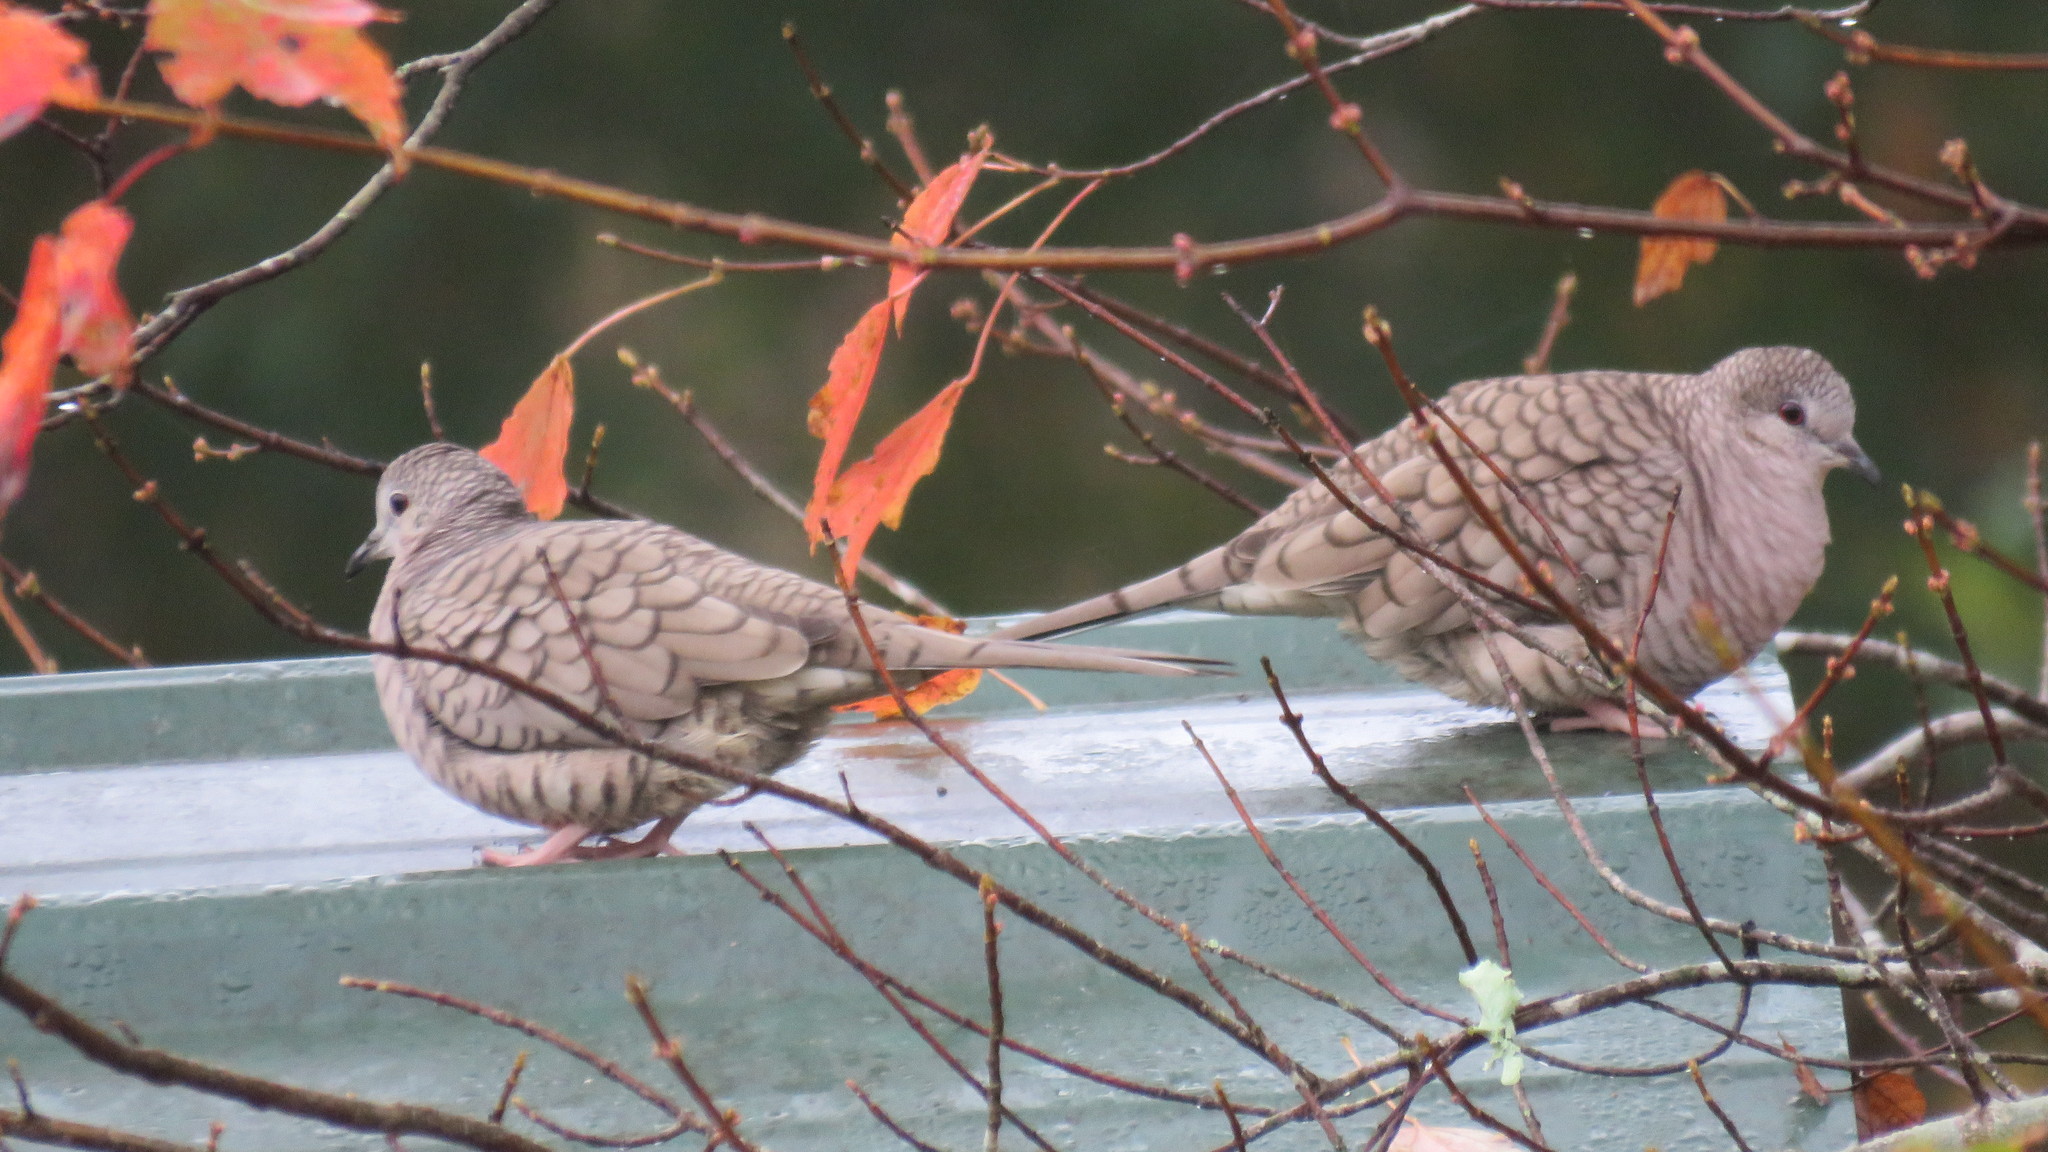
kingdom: Animalia
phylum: Chordata
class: Aves
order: Columbiformes
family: Columbidae
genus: Columbina
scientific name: Columbina inca
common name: Inca dove
